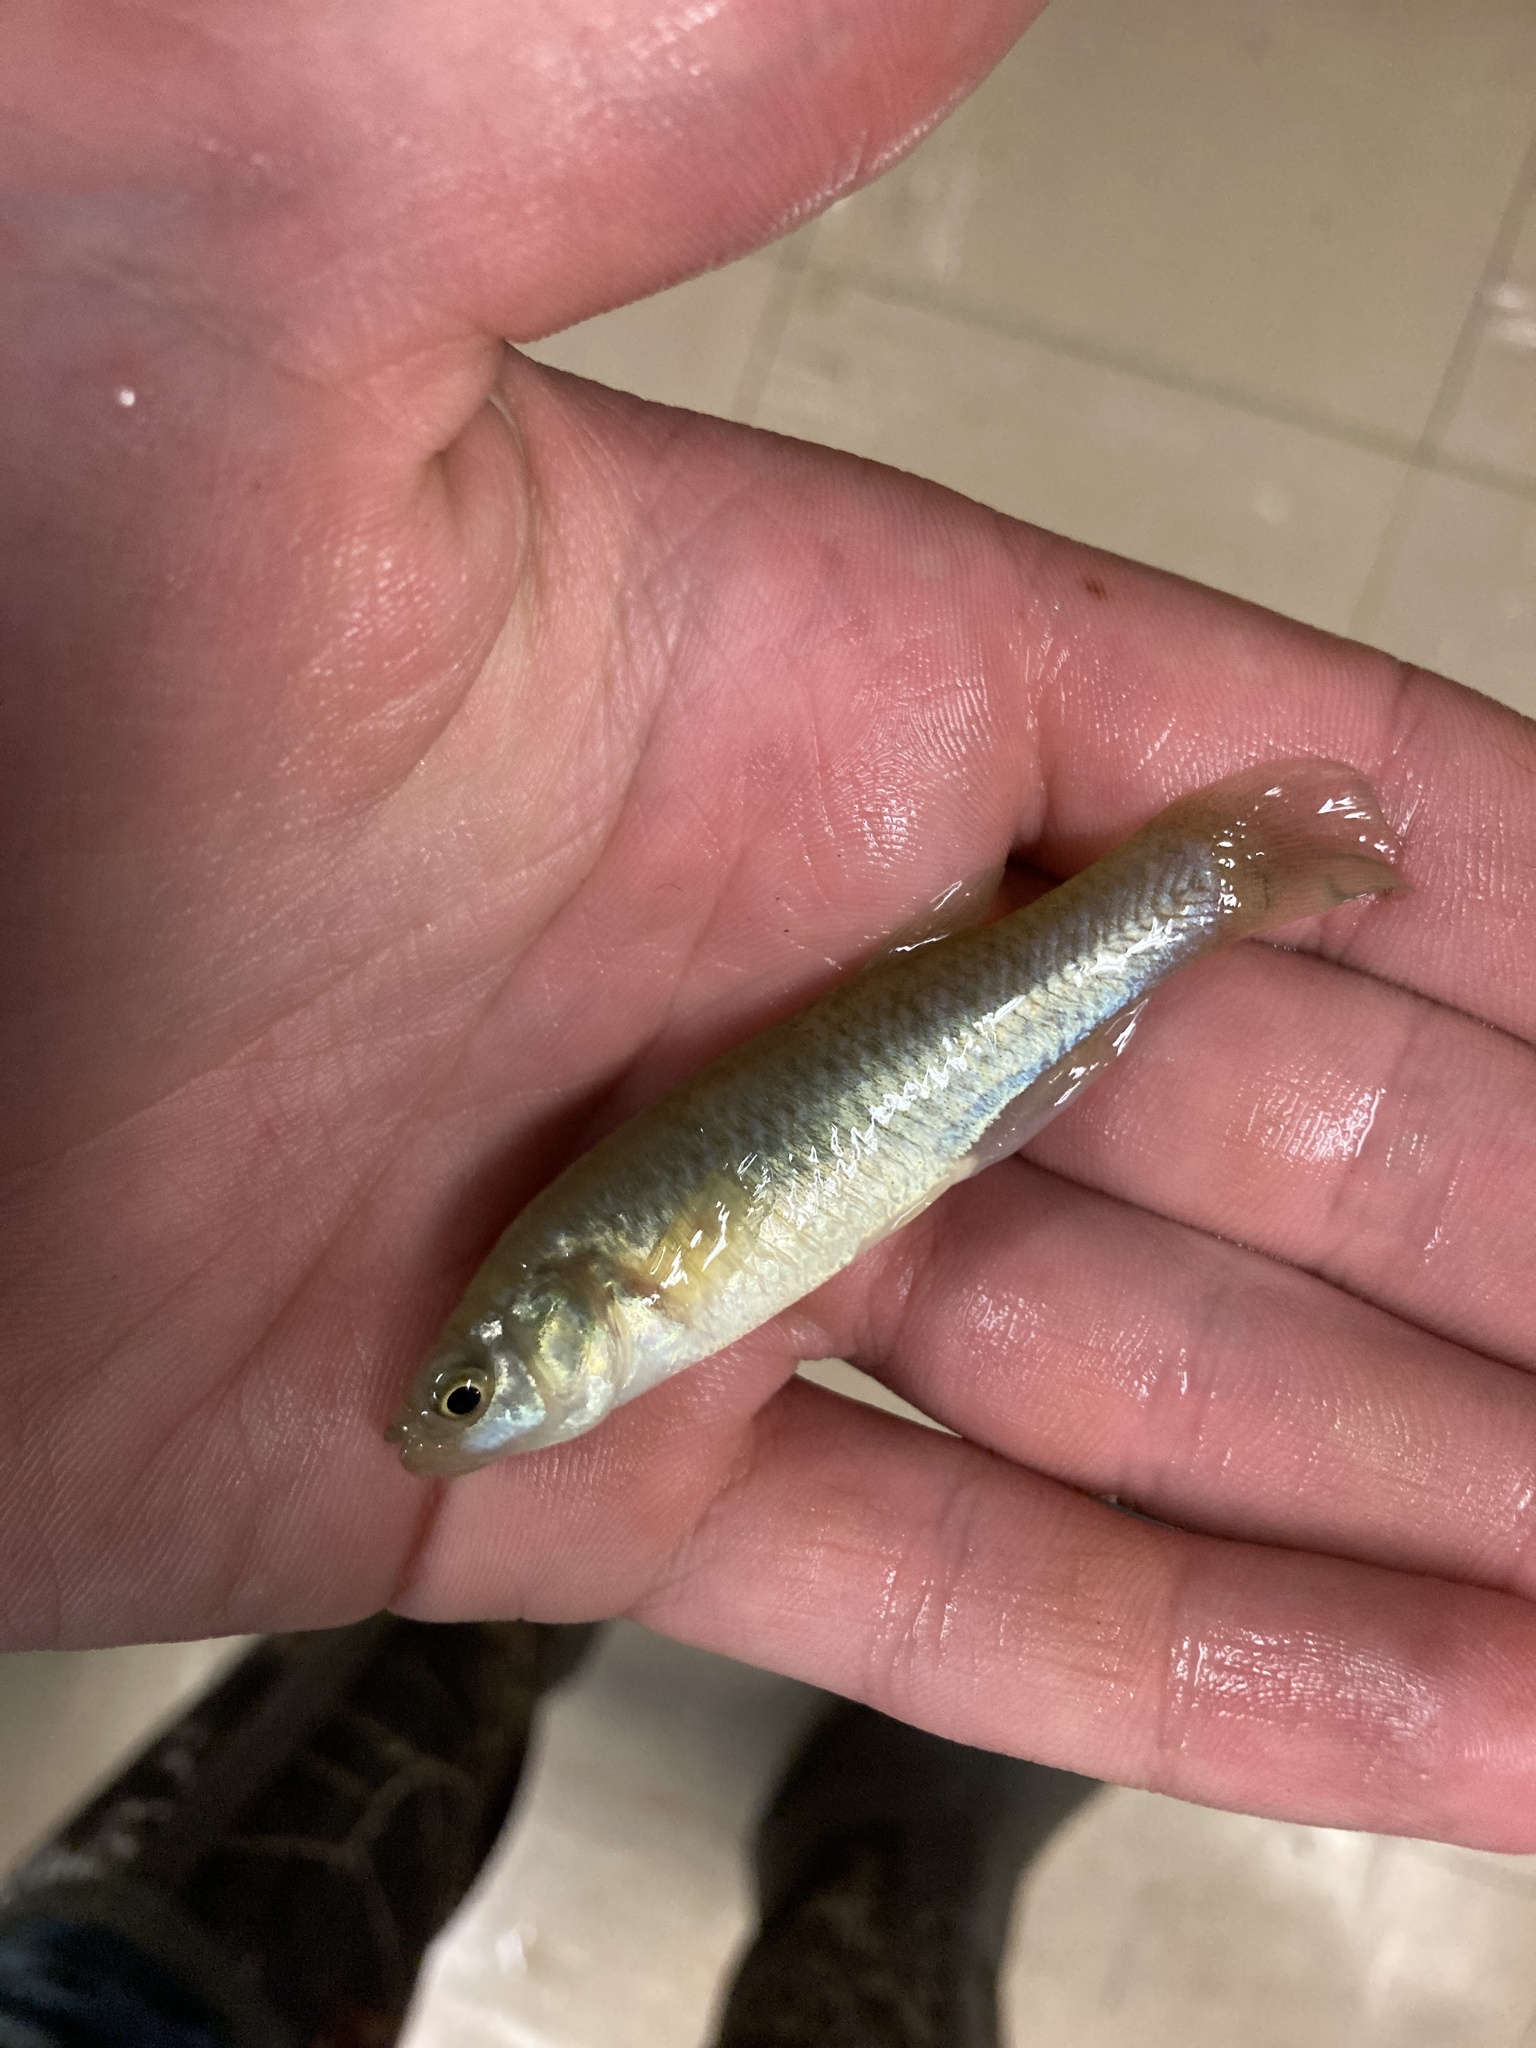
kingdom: Animalia
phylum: Chordata
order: Cyprinodontiformes
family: Fundulidae
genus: Fundulus
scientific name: Fundulus heteroclitus
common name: Mummichog
